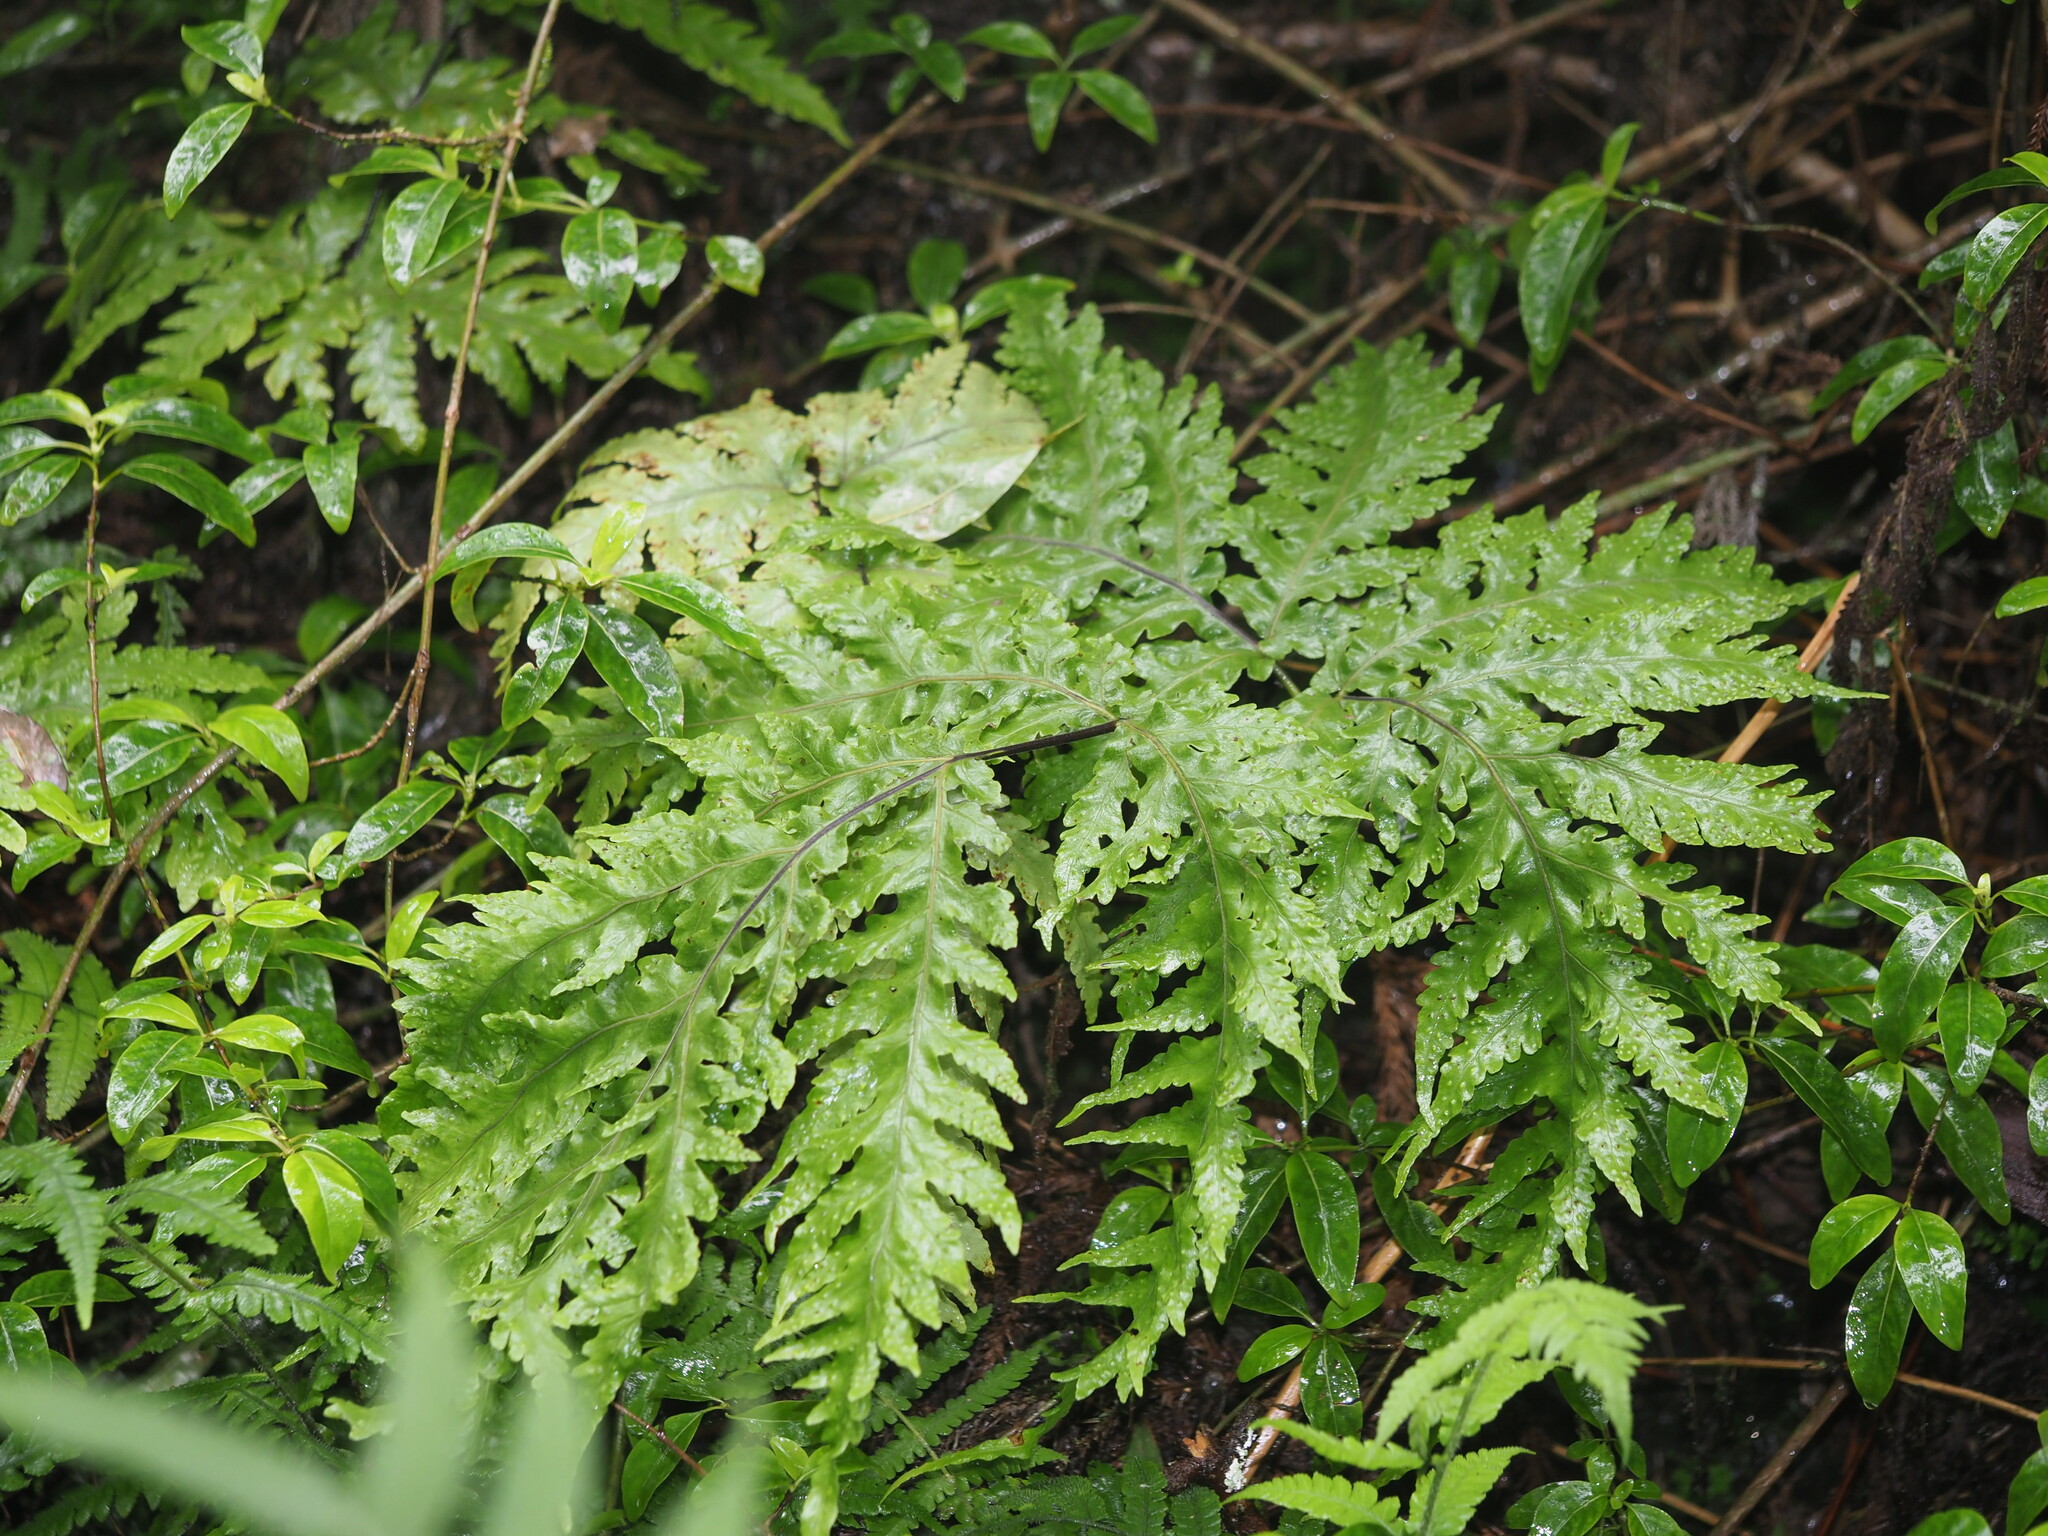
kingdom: Plantae
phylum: Tracheophyta
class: Polypodiopsida
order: Polypodiales
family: Tectariaceae
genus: Tectaria
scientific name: Tectaria gaudichaudii
